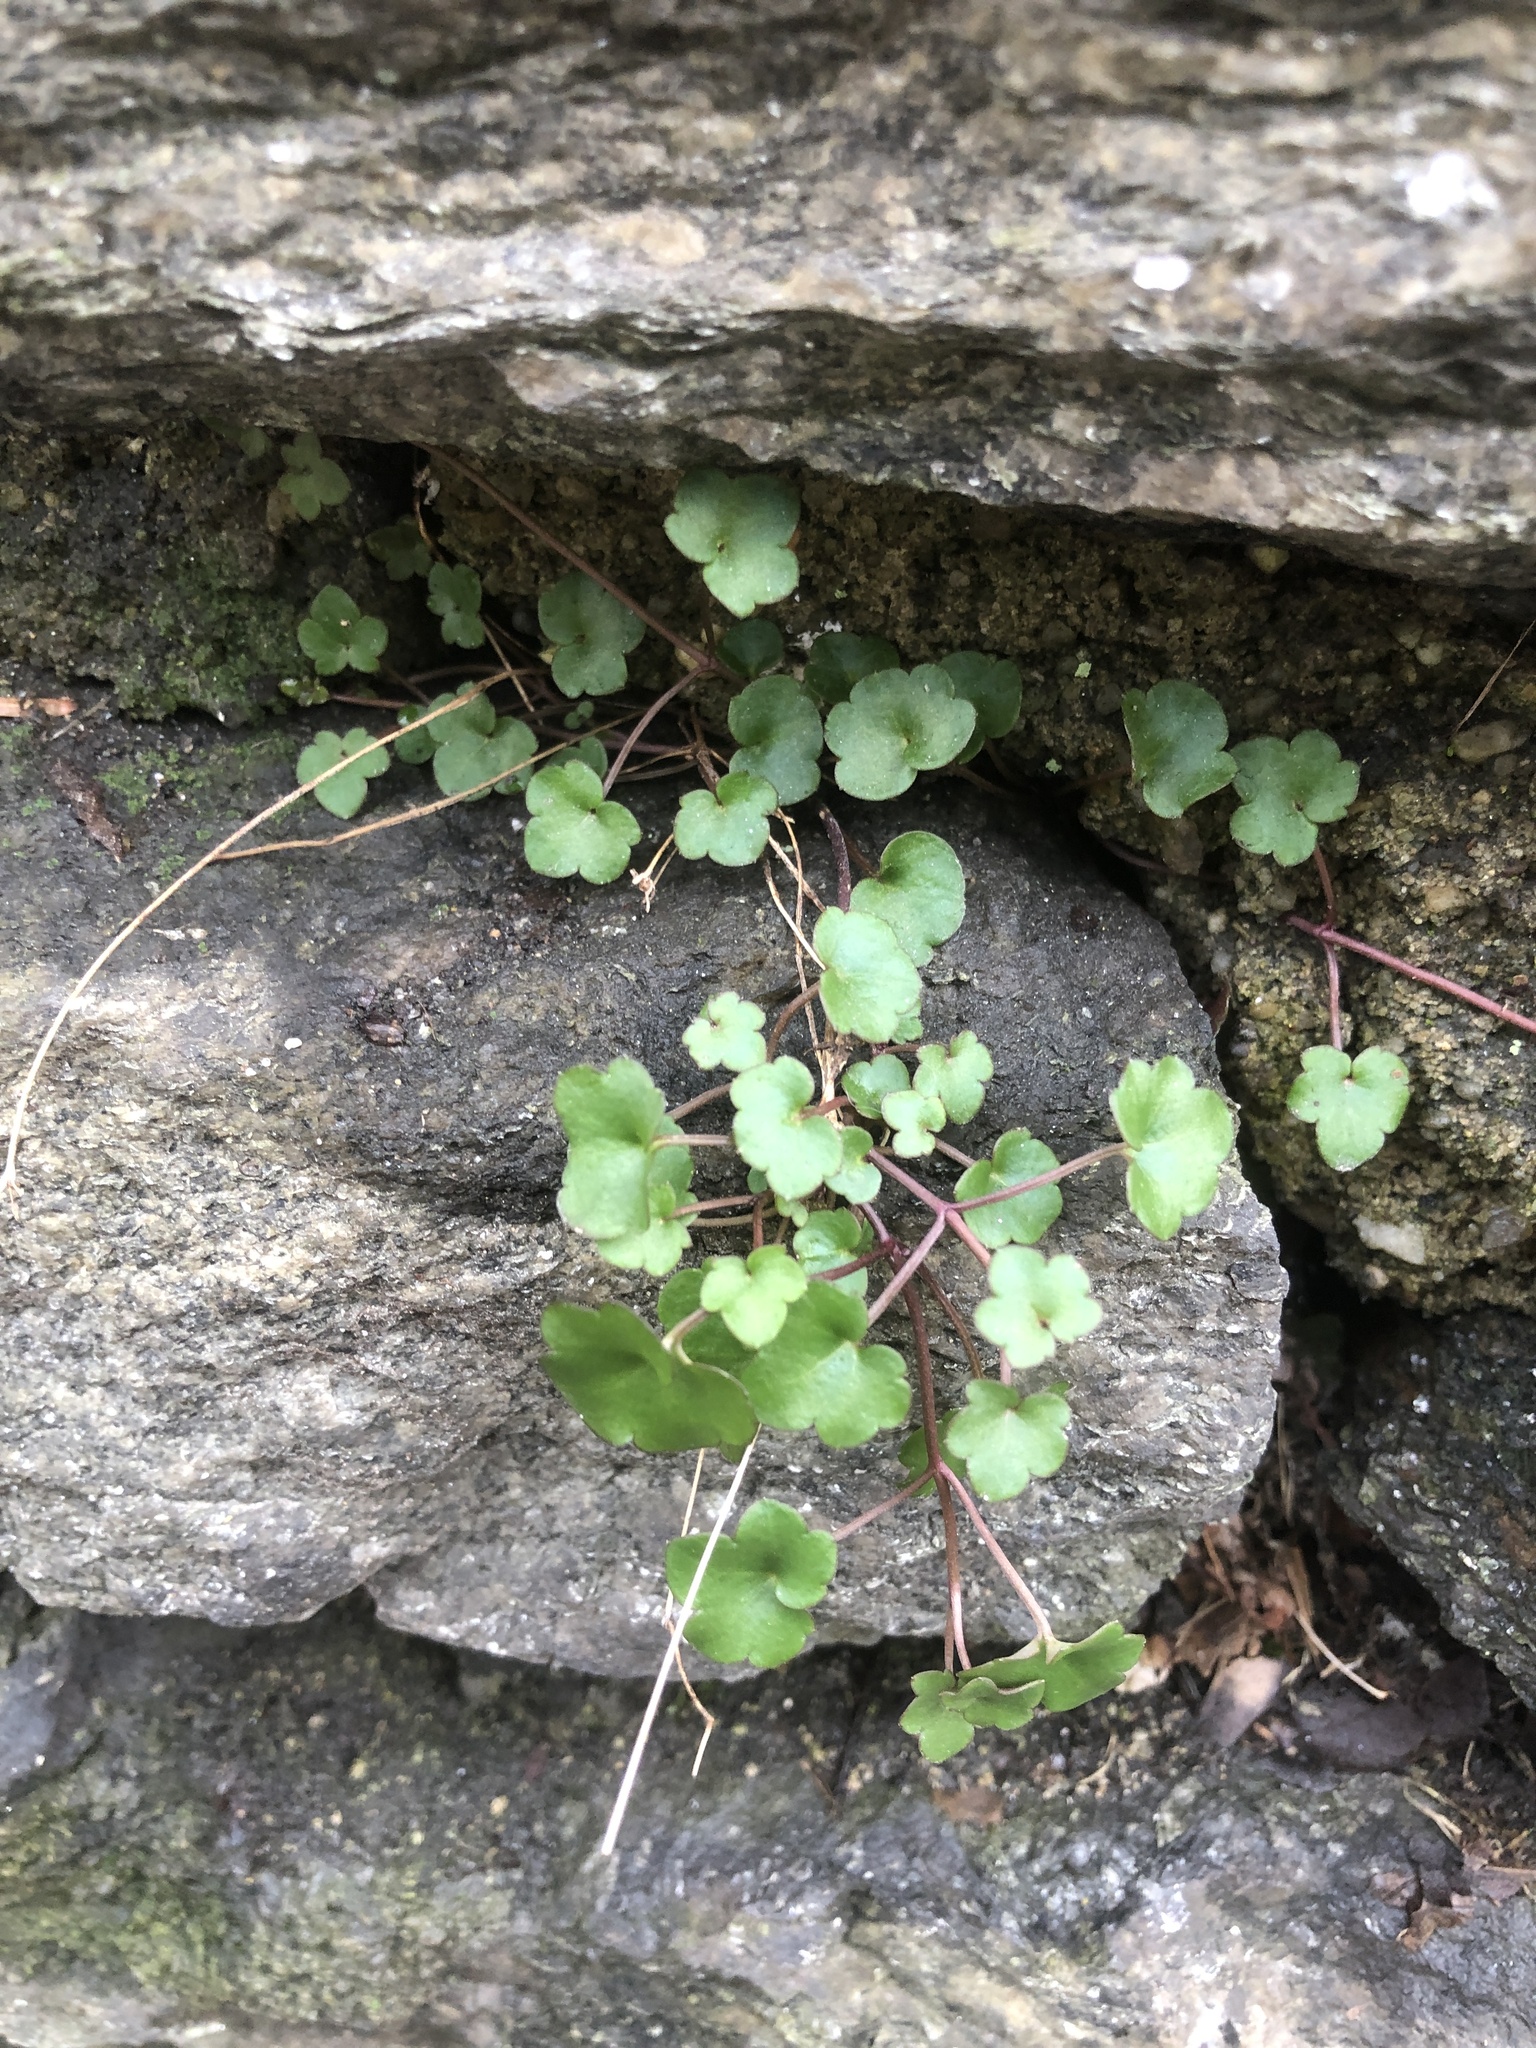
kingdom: Plantae
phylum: Tracheophyta
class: Magnoliopsida
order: Lamiales
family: Plantaginaceae
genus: Cymbalaria
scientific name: Cymbalaria muralis
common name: Ivy-leaved toadflax
